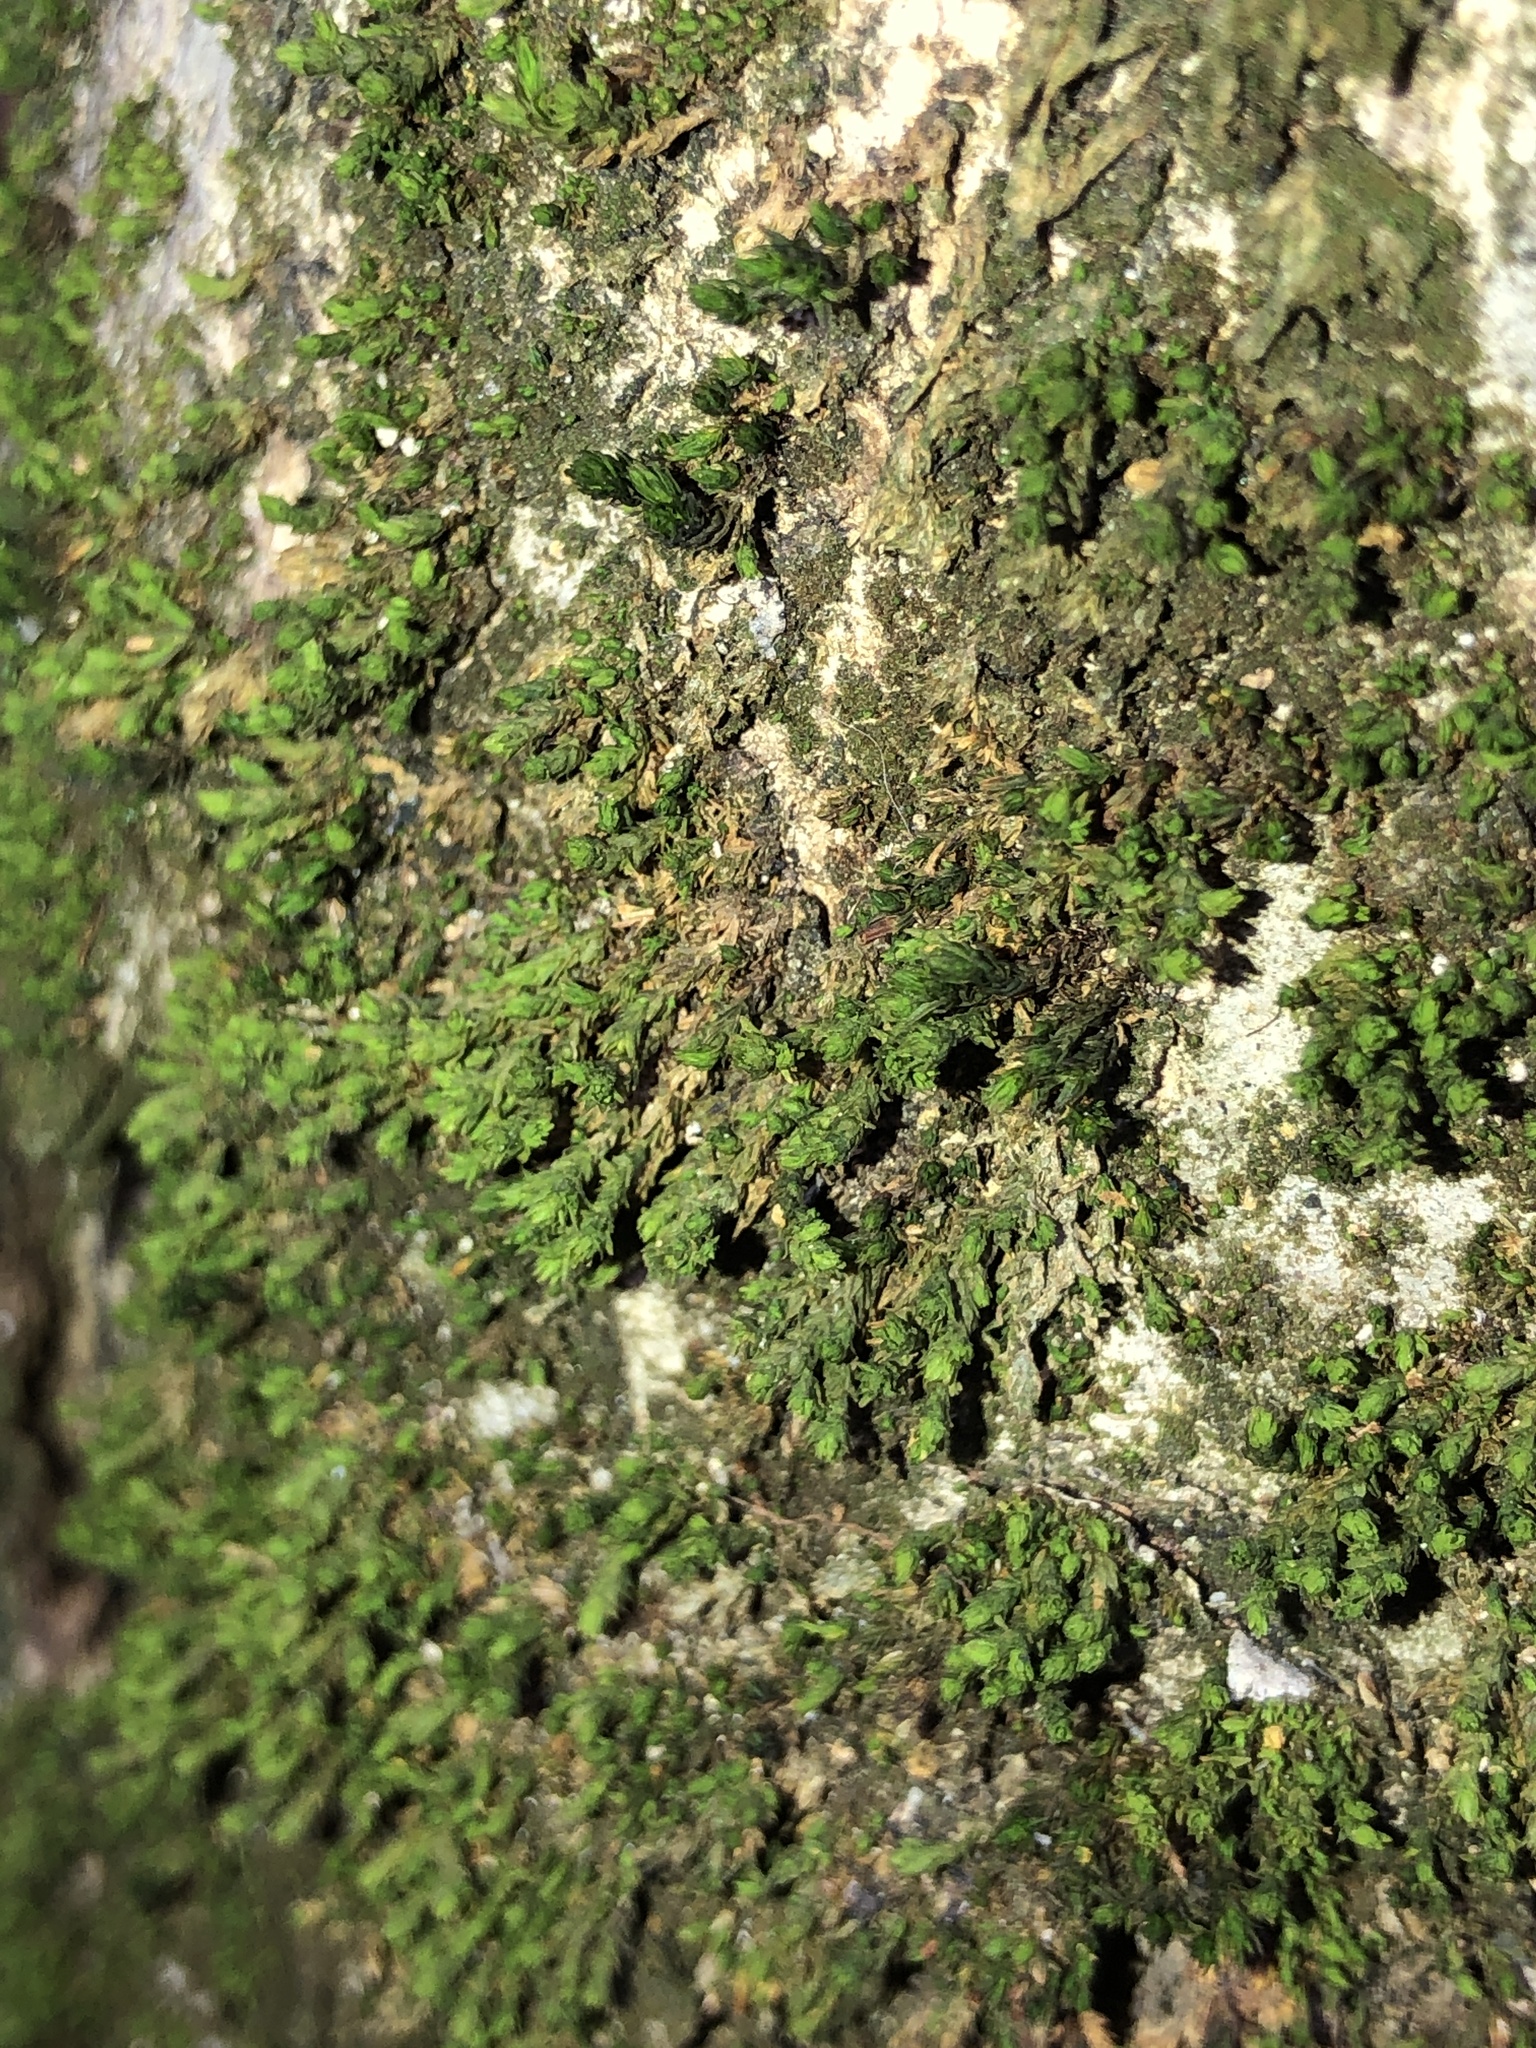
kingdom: Plantae
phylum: Bryophyta
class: Bryopsida
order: Orthotrichales
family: Orthotrichaceae
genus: Nyholmiella
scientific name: Nyholmiella obtusifolia
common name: Blunt-leaved bristle-moss
